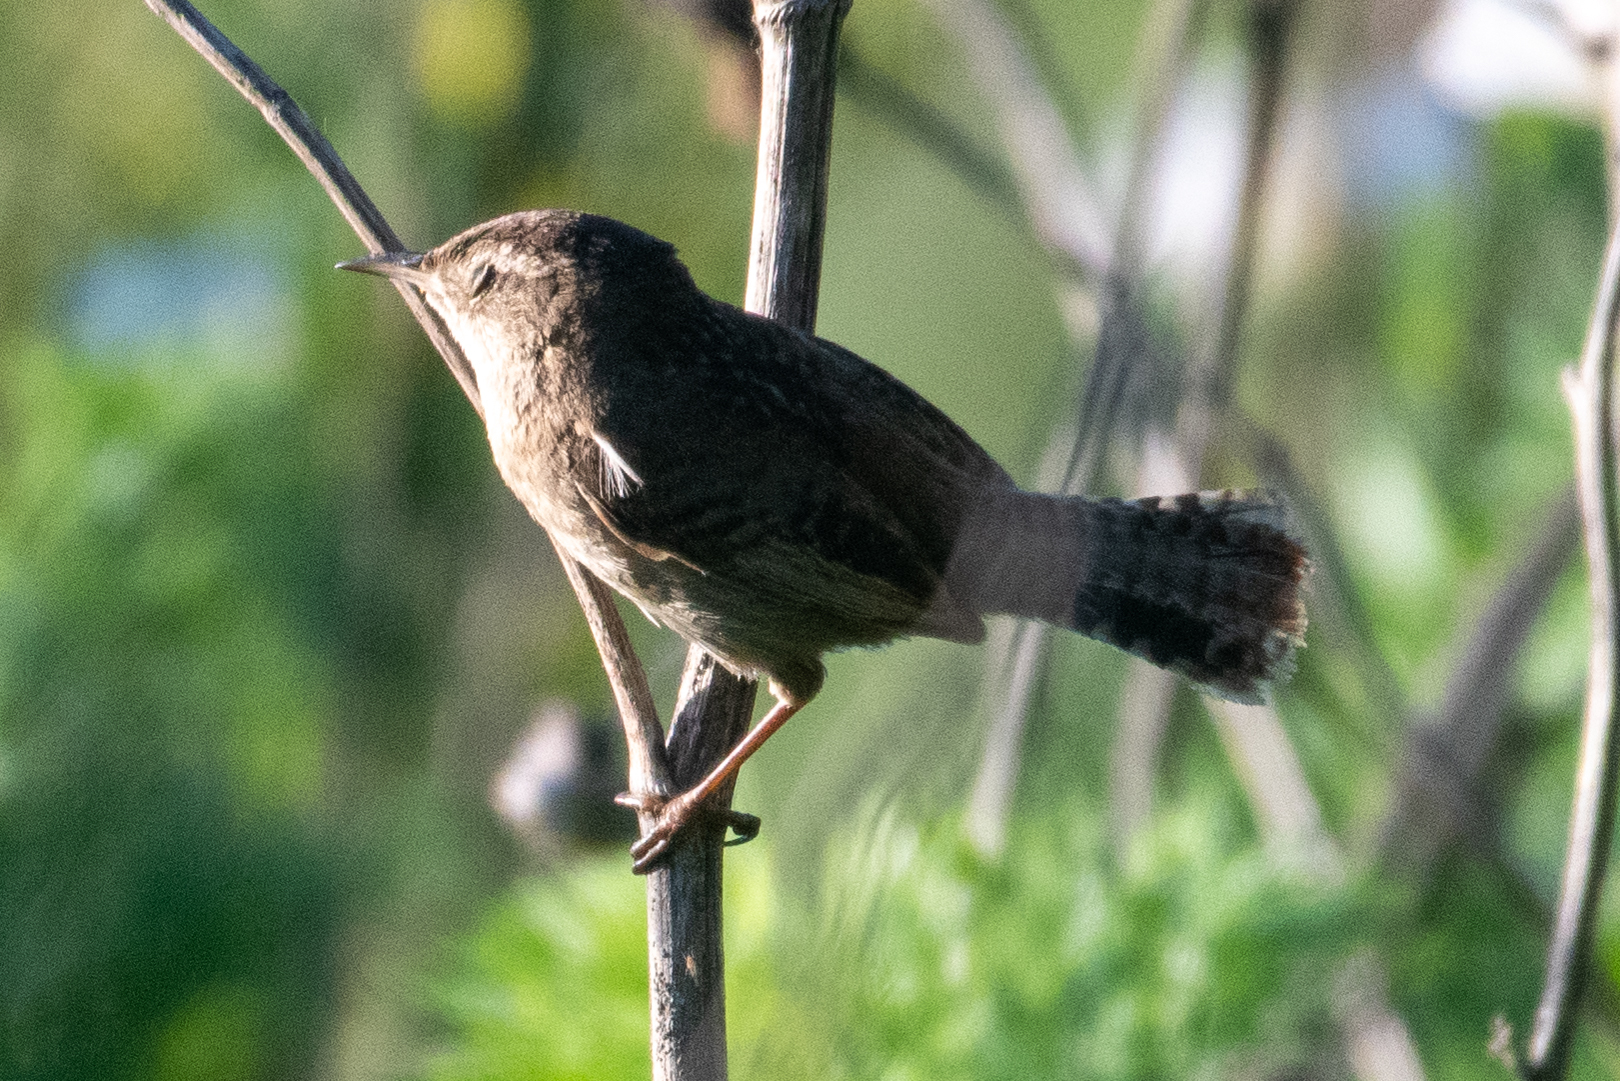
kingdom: Animalia
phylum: Chordata
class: Aves
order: Passeriformes
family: Troglodytidae
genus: Cistothorus
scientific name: Cistothorus palustris
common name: Marsh wren
